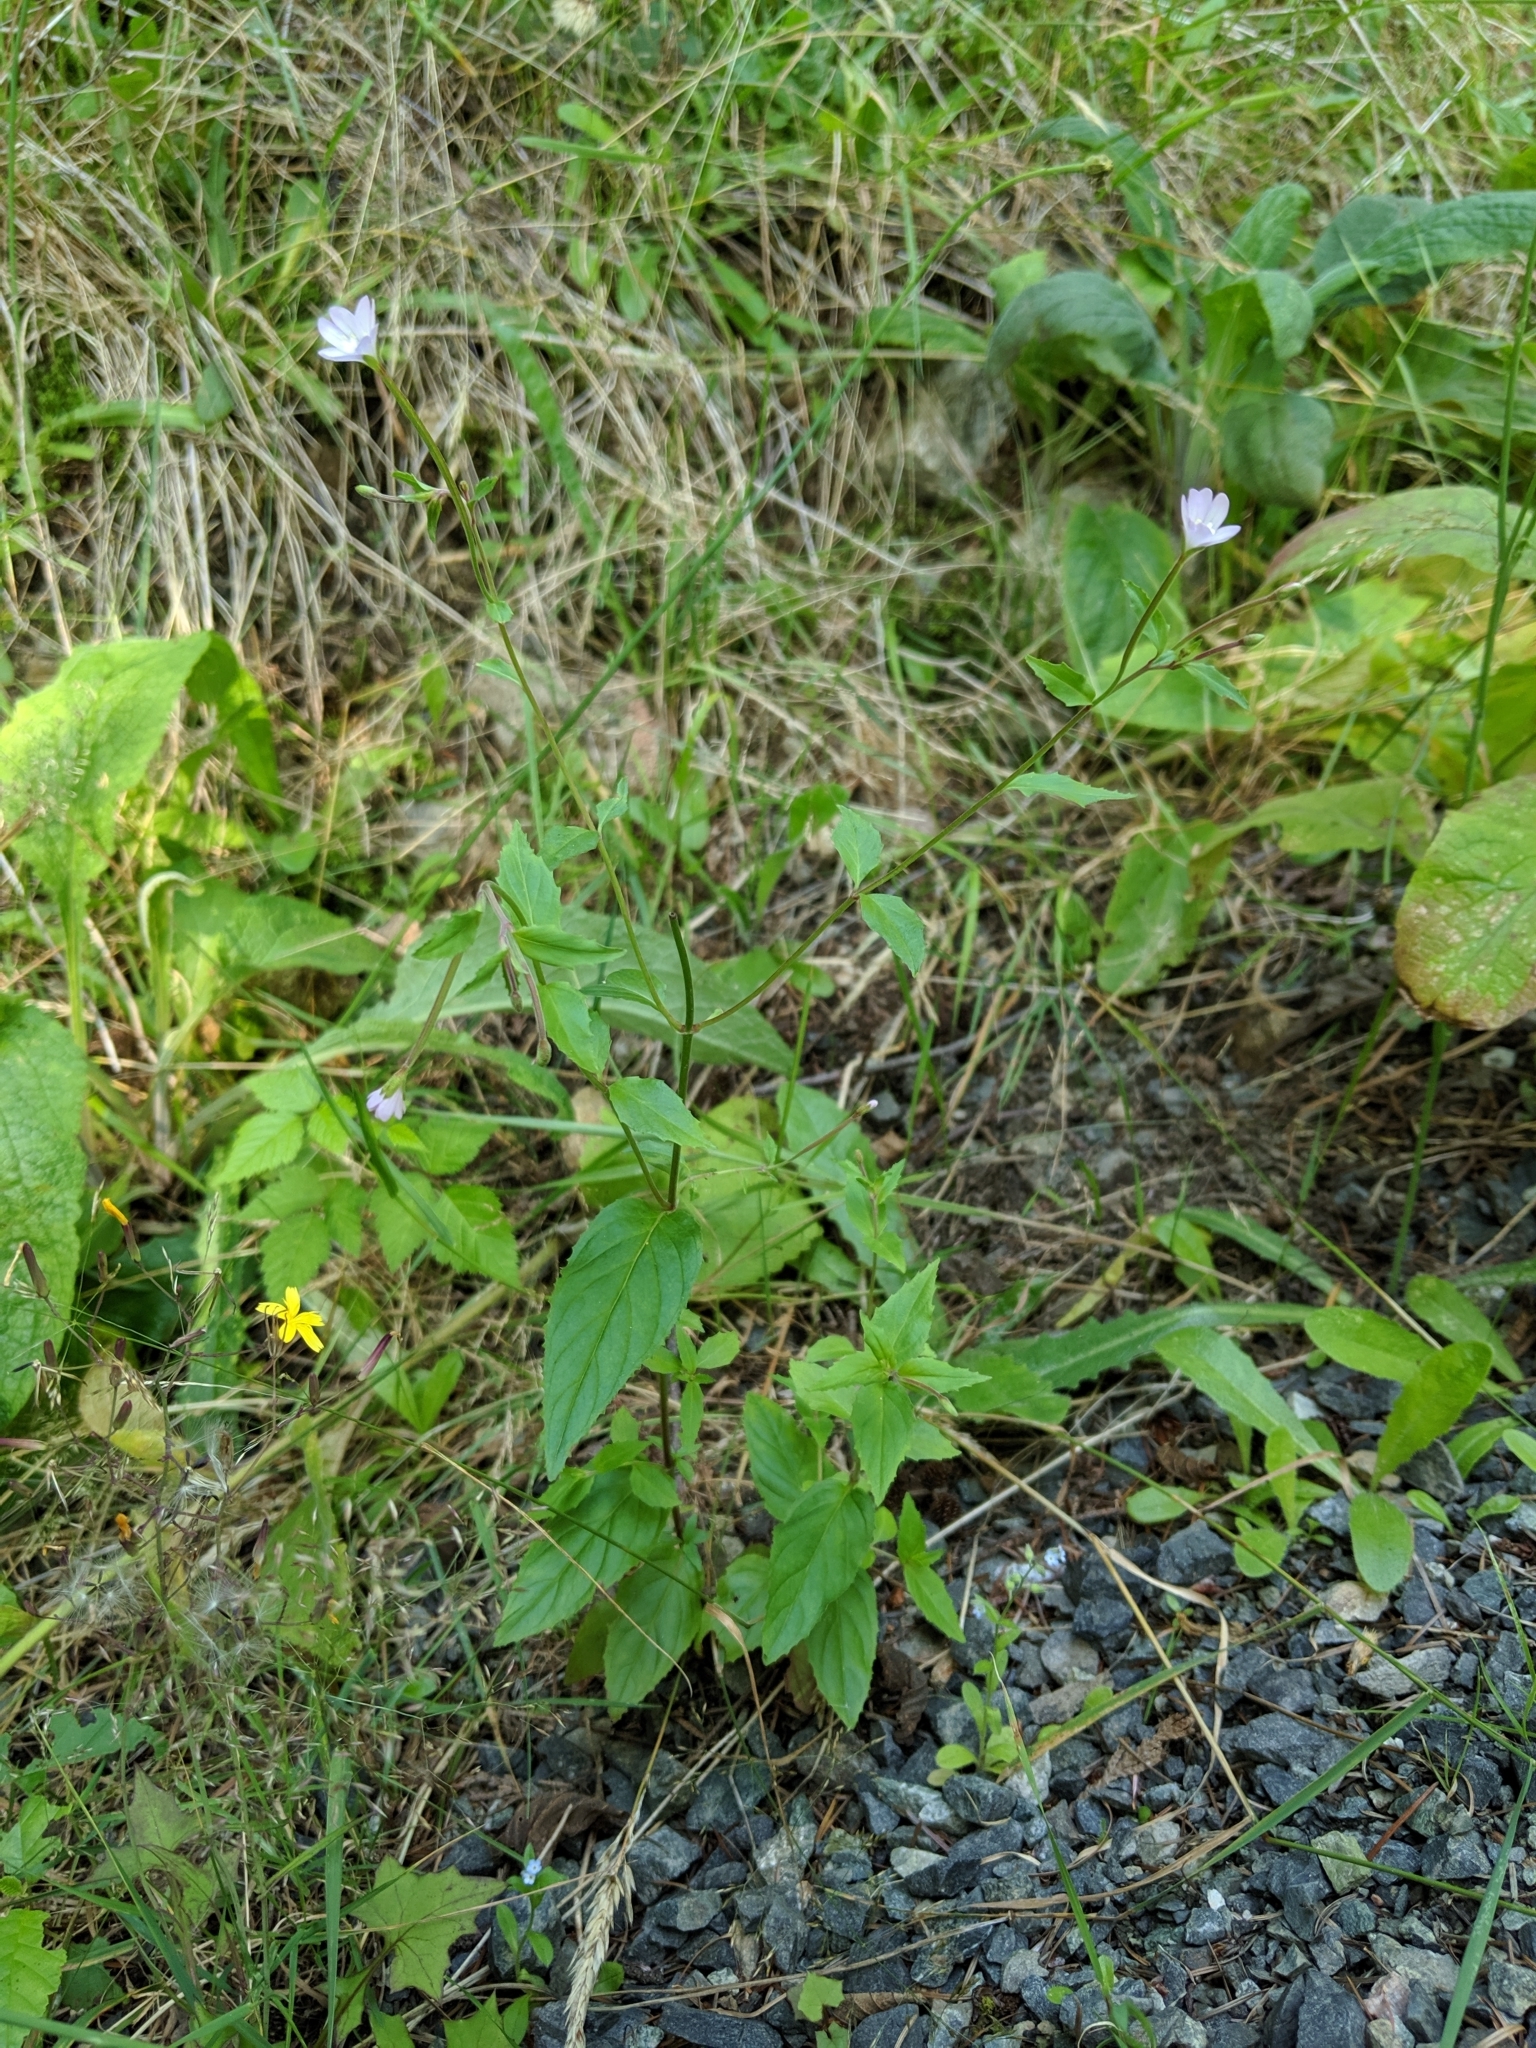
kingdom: Plantae
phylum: Tracheophyta
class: Magnoliopsida
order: Myrtales
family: Onagraceae
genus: Epilobium
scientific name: Epilobium ciliatum
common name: American willowherb
